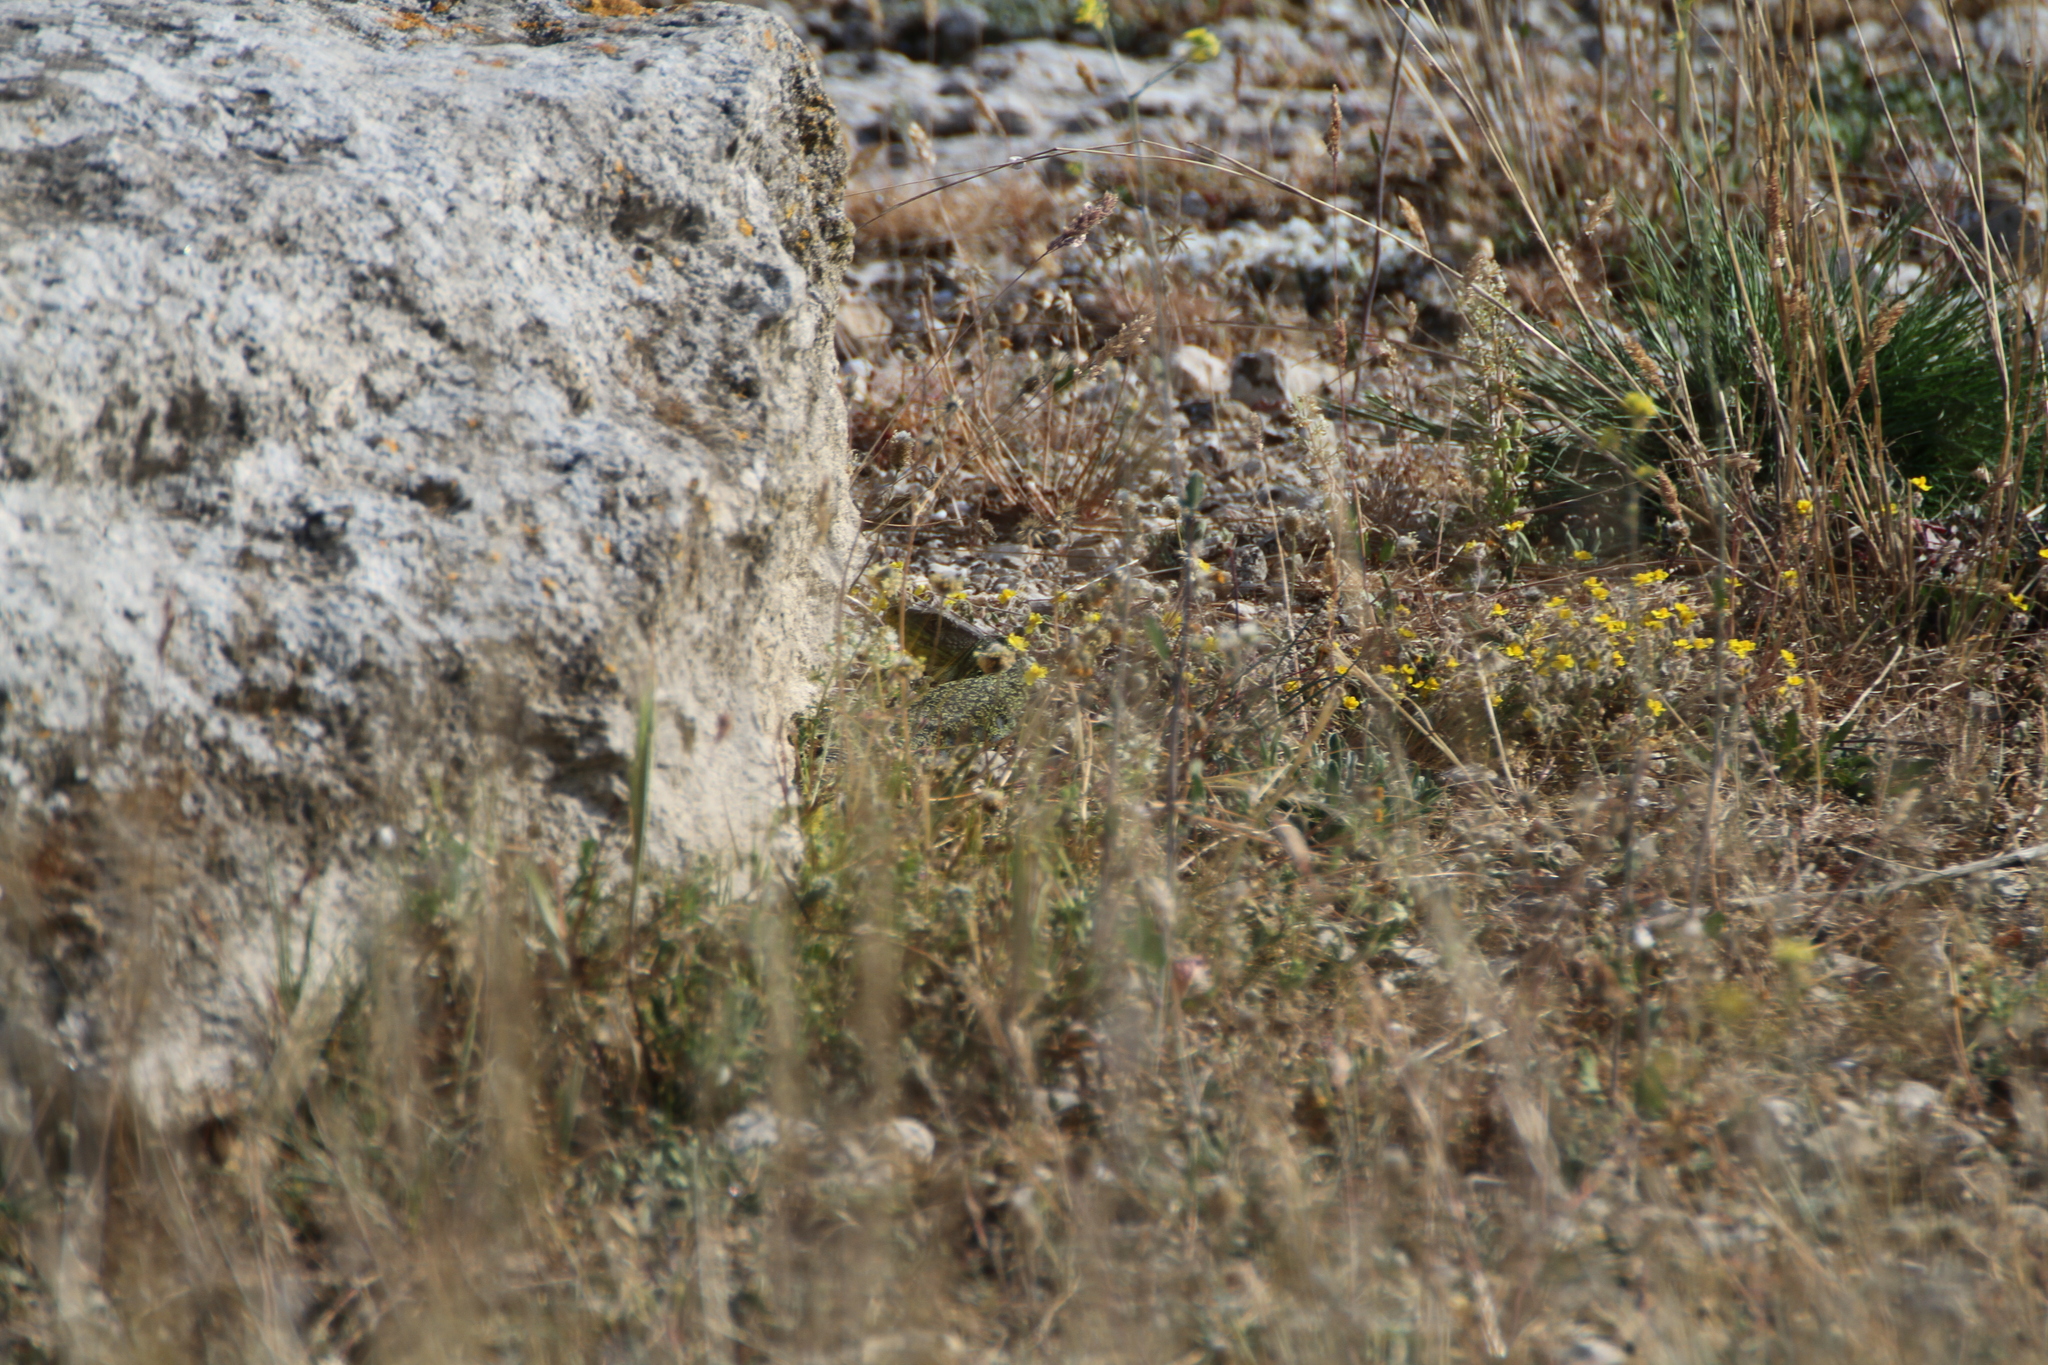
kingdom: Animalia
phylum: Chordata
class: Squamata
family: Lacertidae
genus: Timon
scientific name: Timon lepidus
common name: Ocellated lizard
